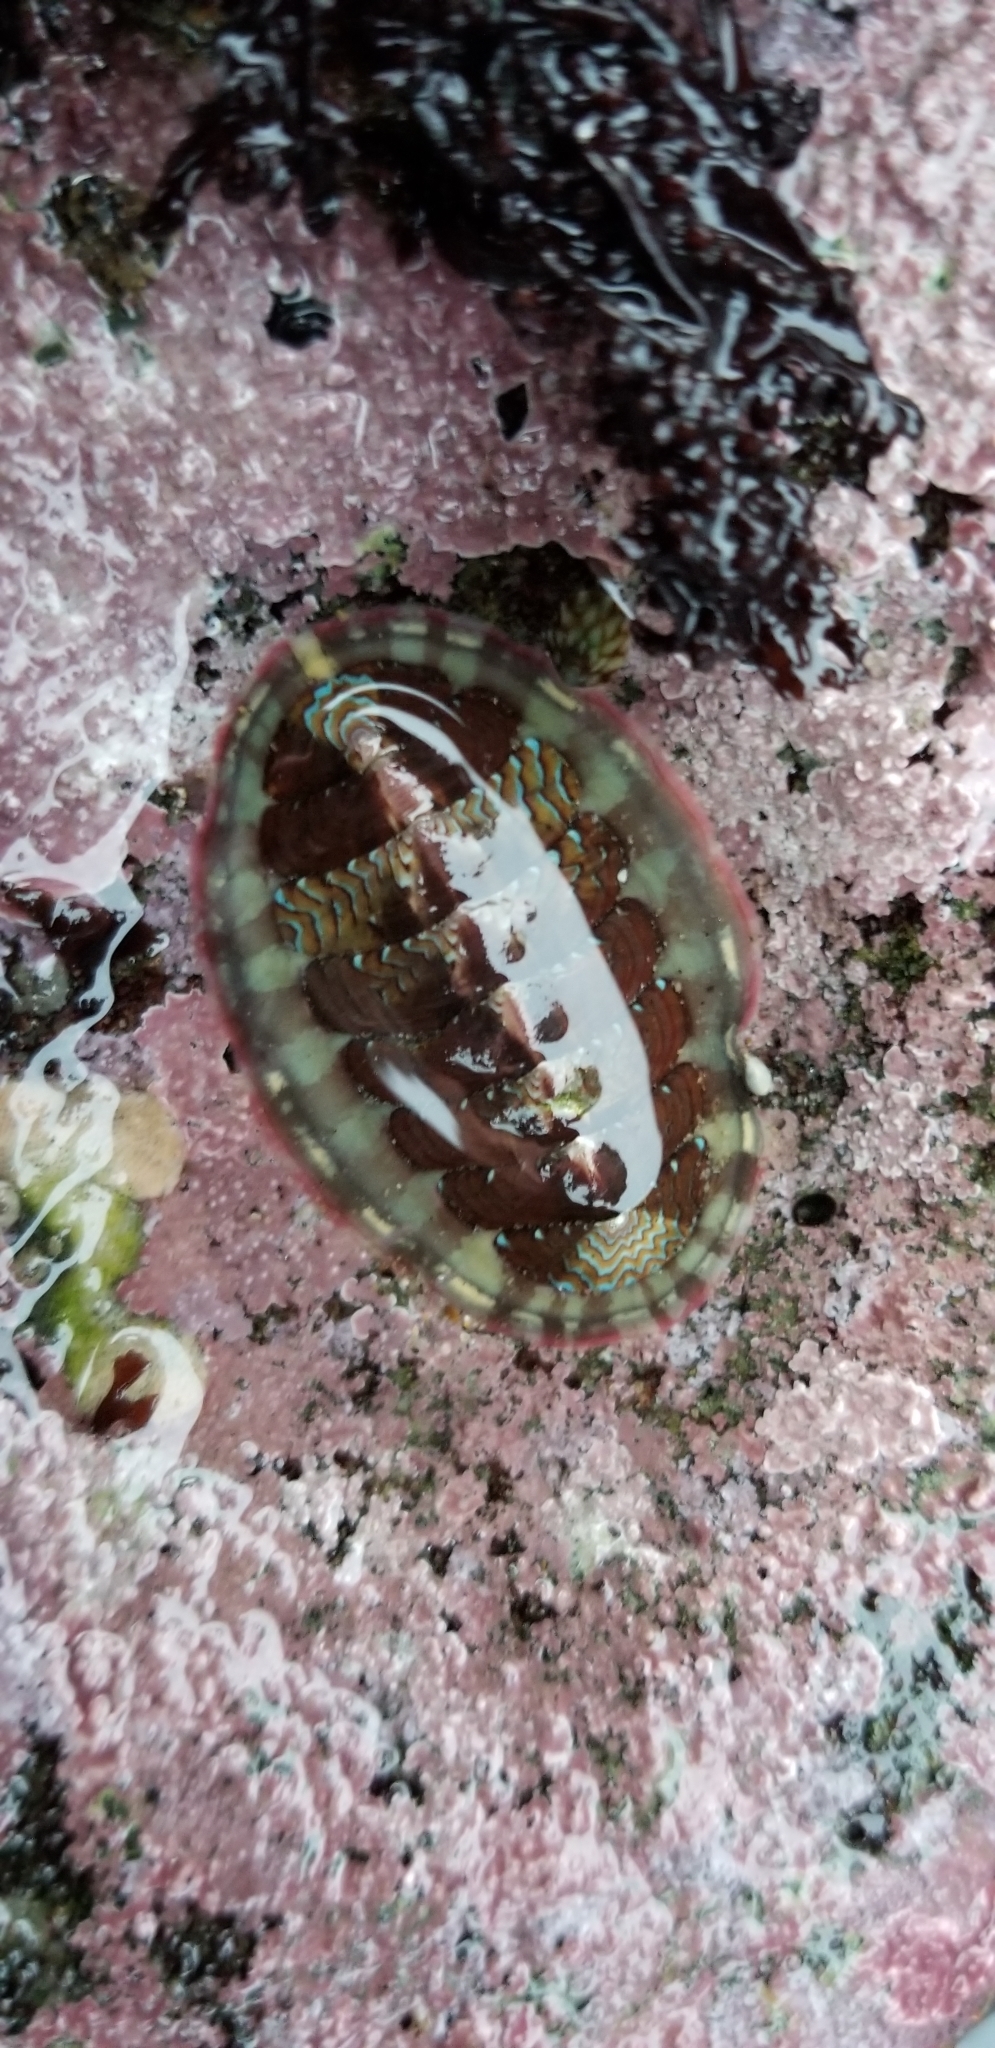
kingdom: Animalia
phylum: Mollusca
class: Polyplacophora
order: Chitonida
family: Tonicellidae
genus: Tonicella
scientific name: Tonicella lokii
